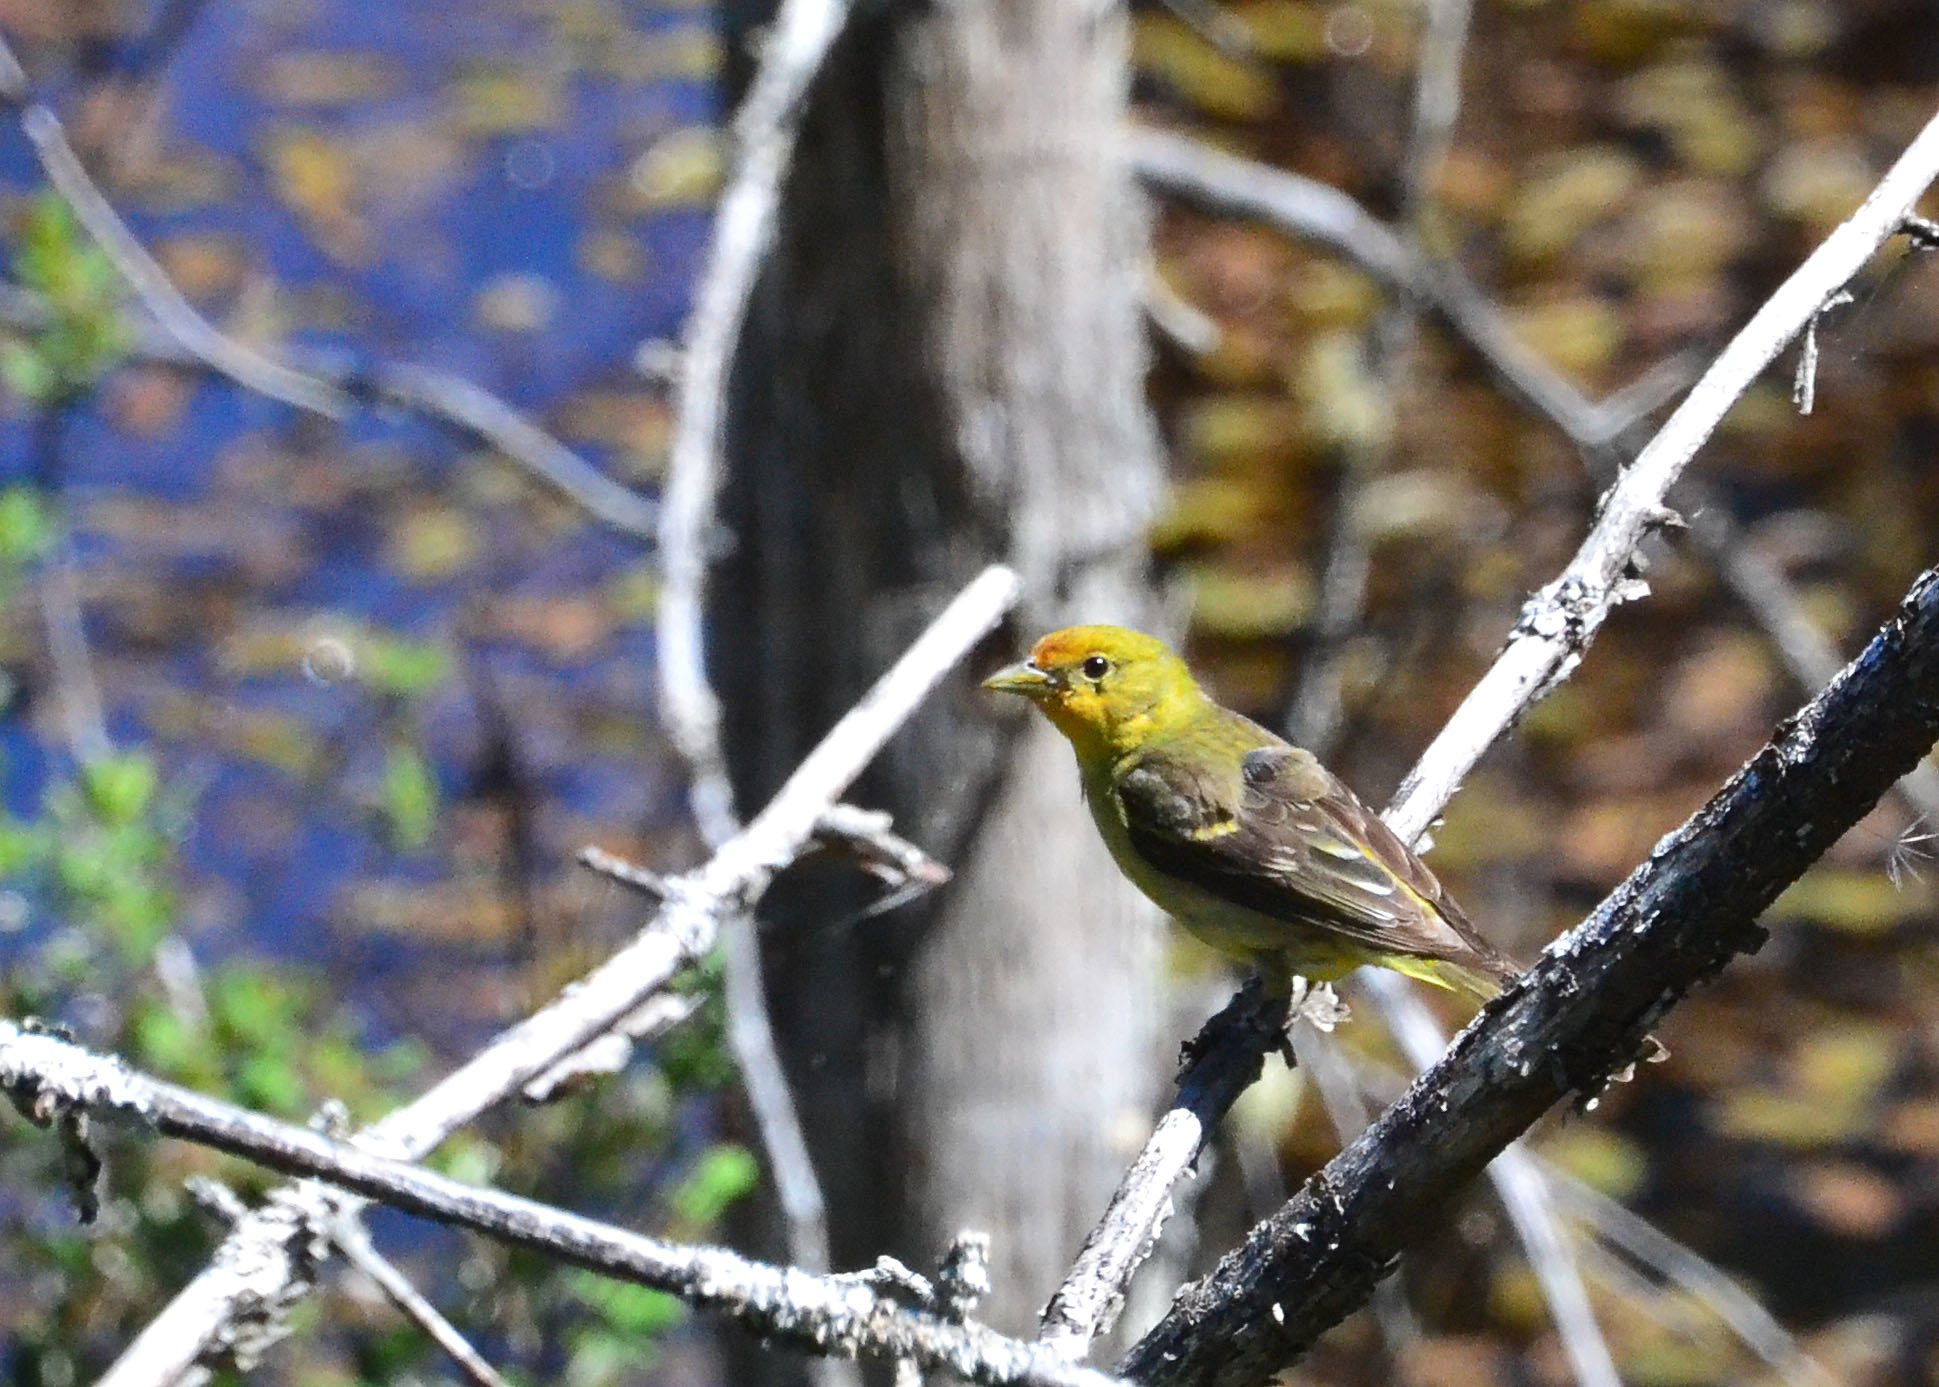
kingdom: Animalia
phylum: Chordata
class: Aves
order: Passeriformes
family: Cardinalidae
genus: Piranga
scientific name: Piranga ludoviciana
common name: Western tanager
